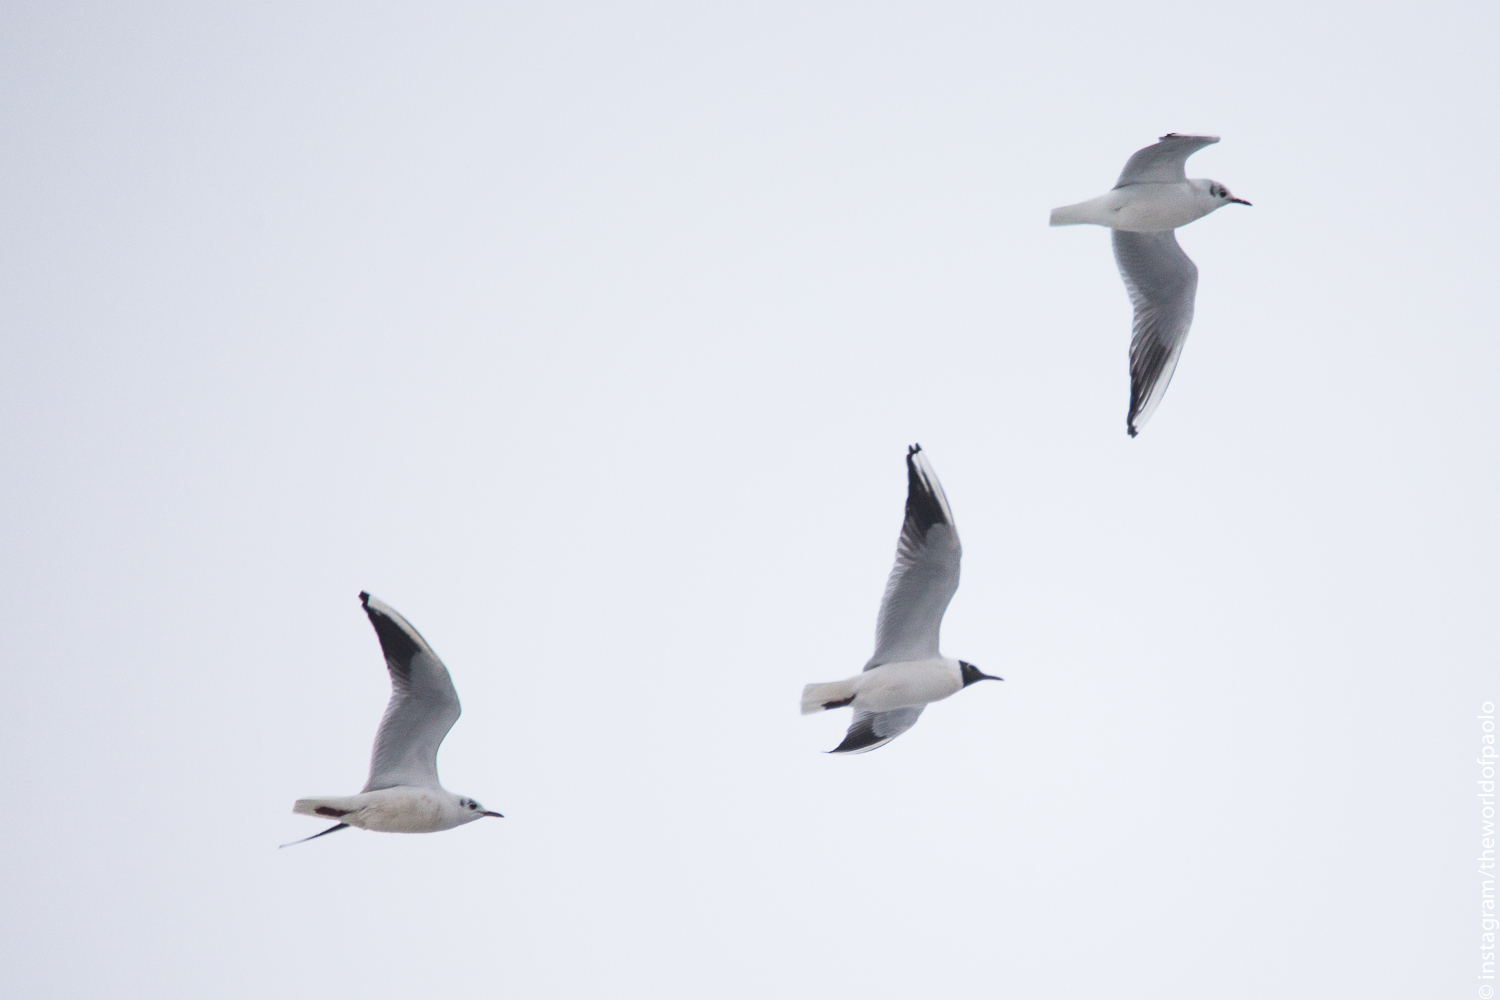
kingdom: Animalia
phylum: Chordata
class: Aves
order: Charadriiformes
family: Laridae
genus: Chroicocephalus
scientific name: Chroicocephalus ridibundus
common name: Black-headed gull
